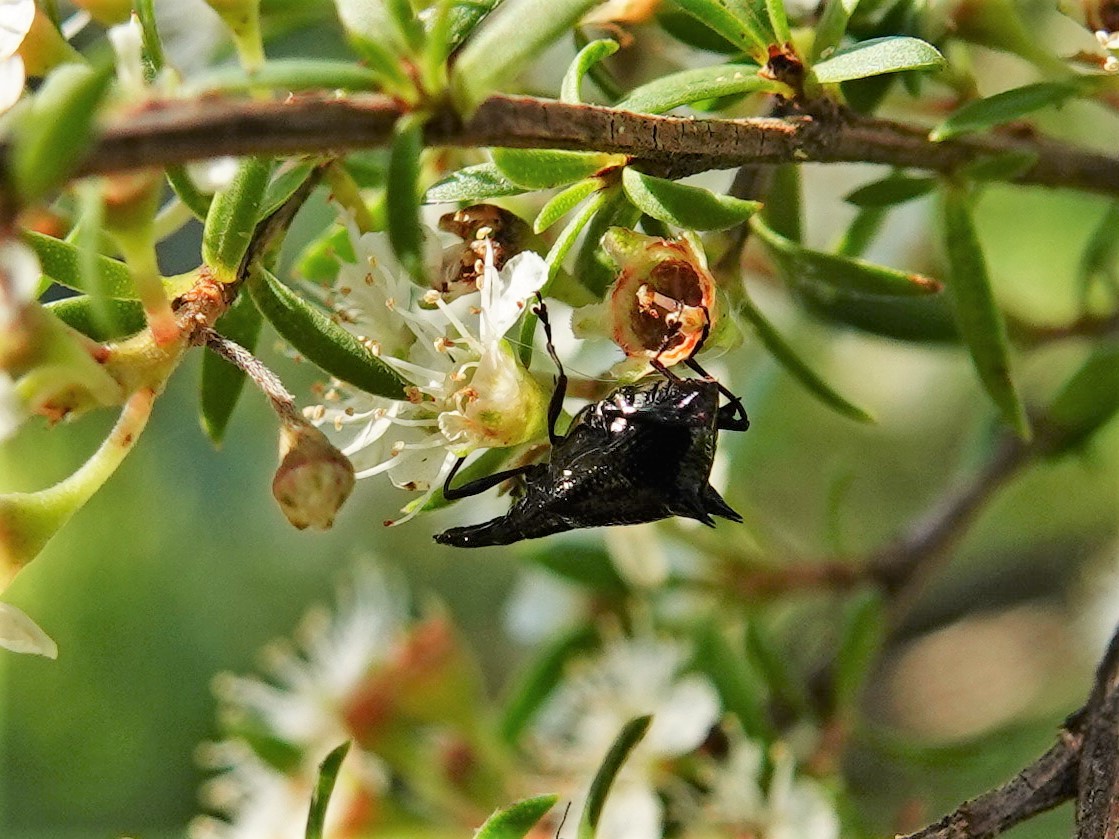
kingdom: Animalia
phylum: Arthropoda
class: Insecta
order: Coleoptera
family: Curculionidae
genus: Scolopterus
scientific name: Scolopterus aequus
